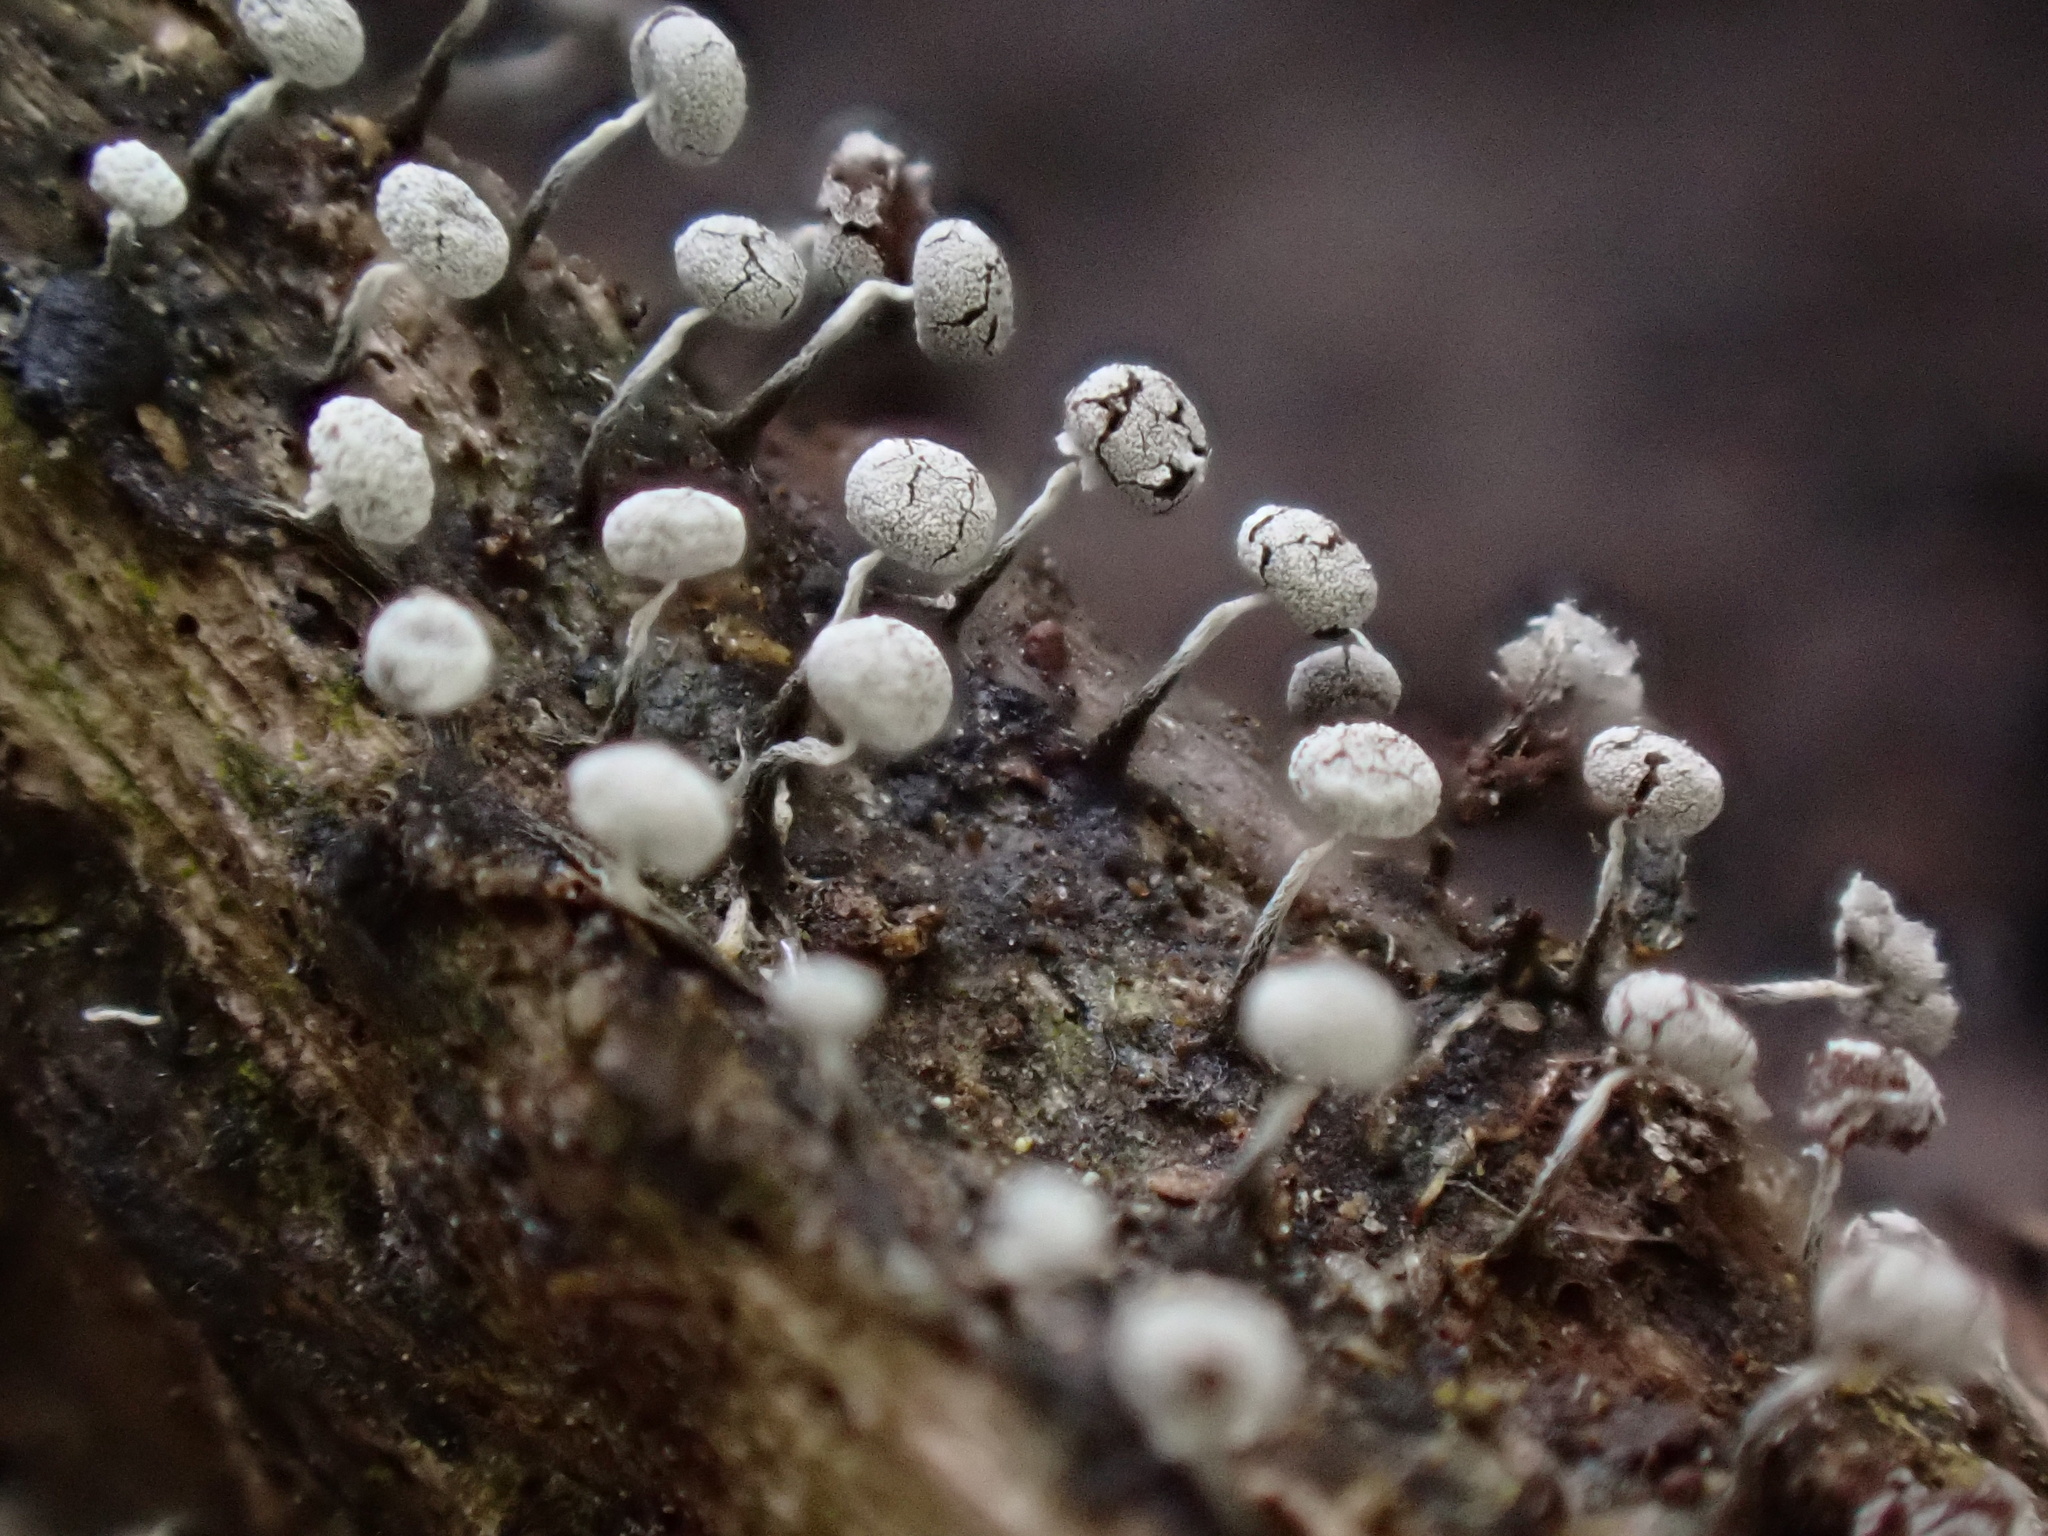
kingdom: Protozoa
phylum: Mycetozoa
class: Myxomycetes
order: Physarales
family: Physaraceae
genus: Physarum
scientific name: Physarum album
